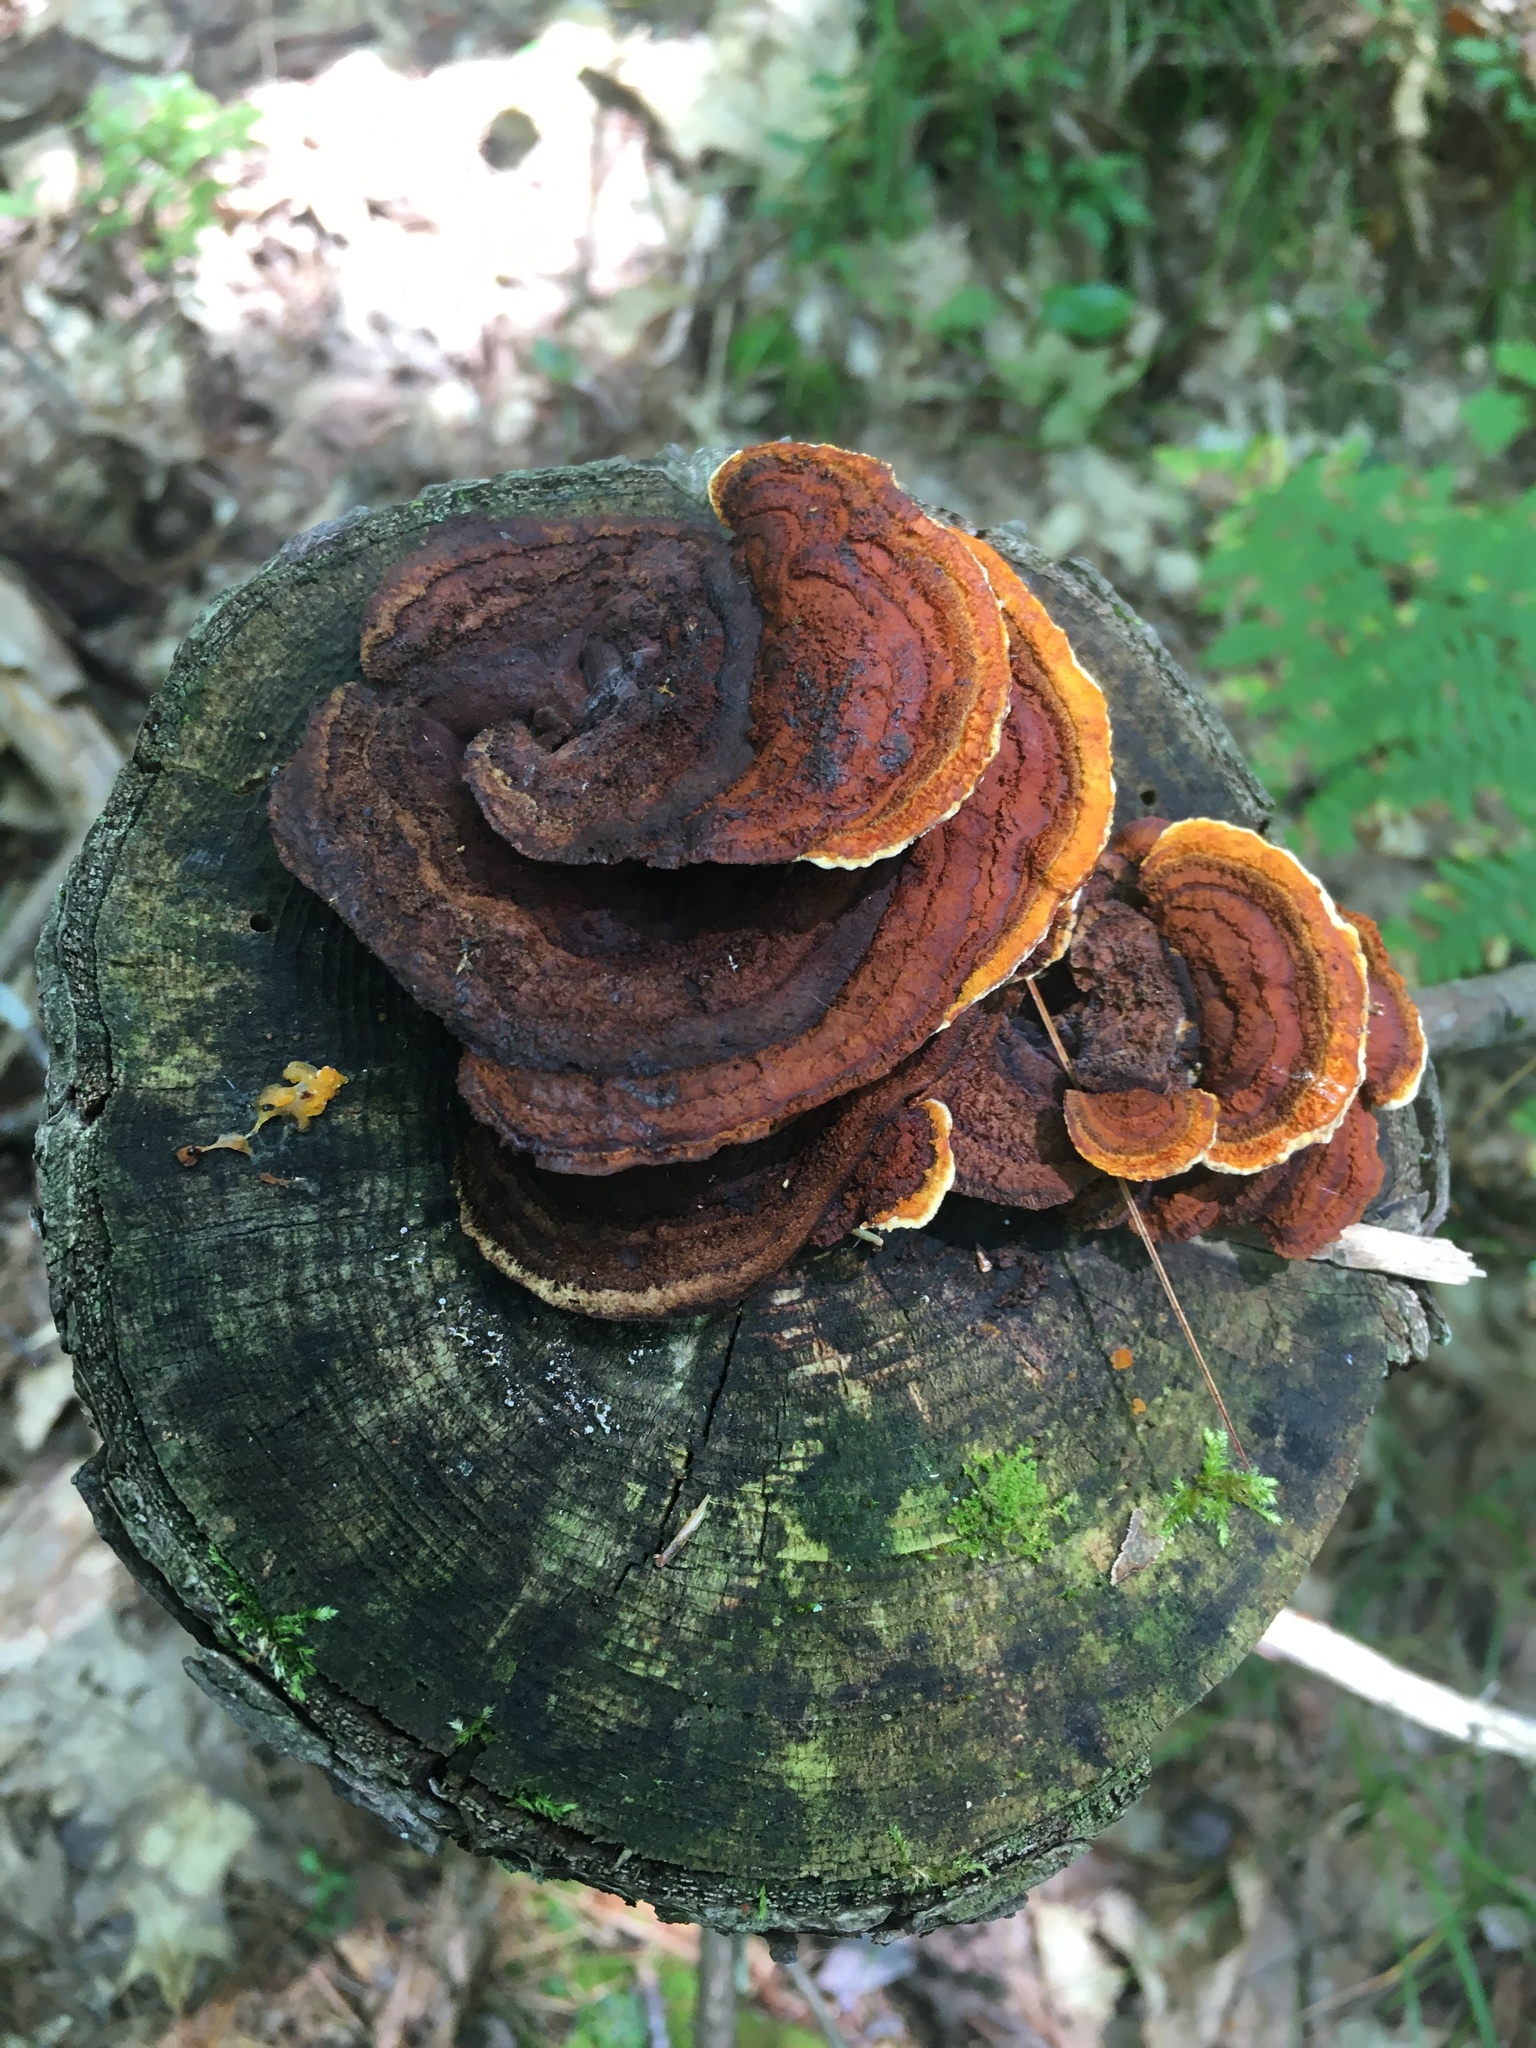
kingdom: Fungi
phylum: Basidiomycota
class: Agaricomycetes
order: Gloeophyllales
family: Gloeophyllaceae
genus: Gloeophyllum
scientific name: Gloeophyllum sepiarium
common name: Conifer mazegill
